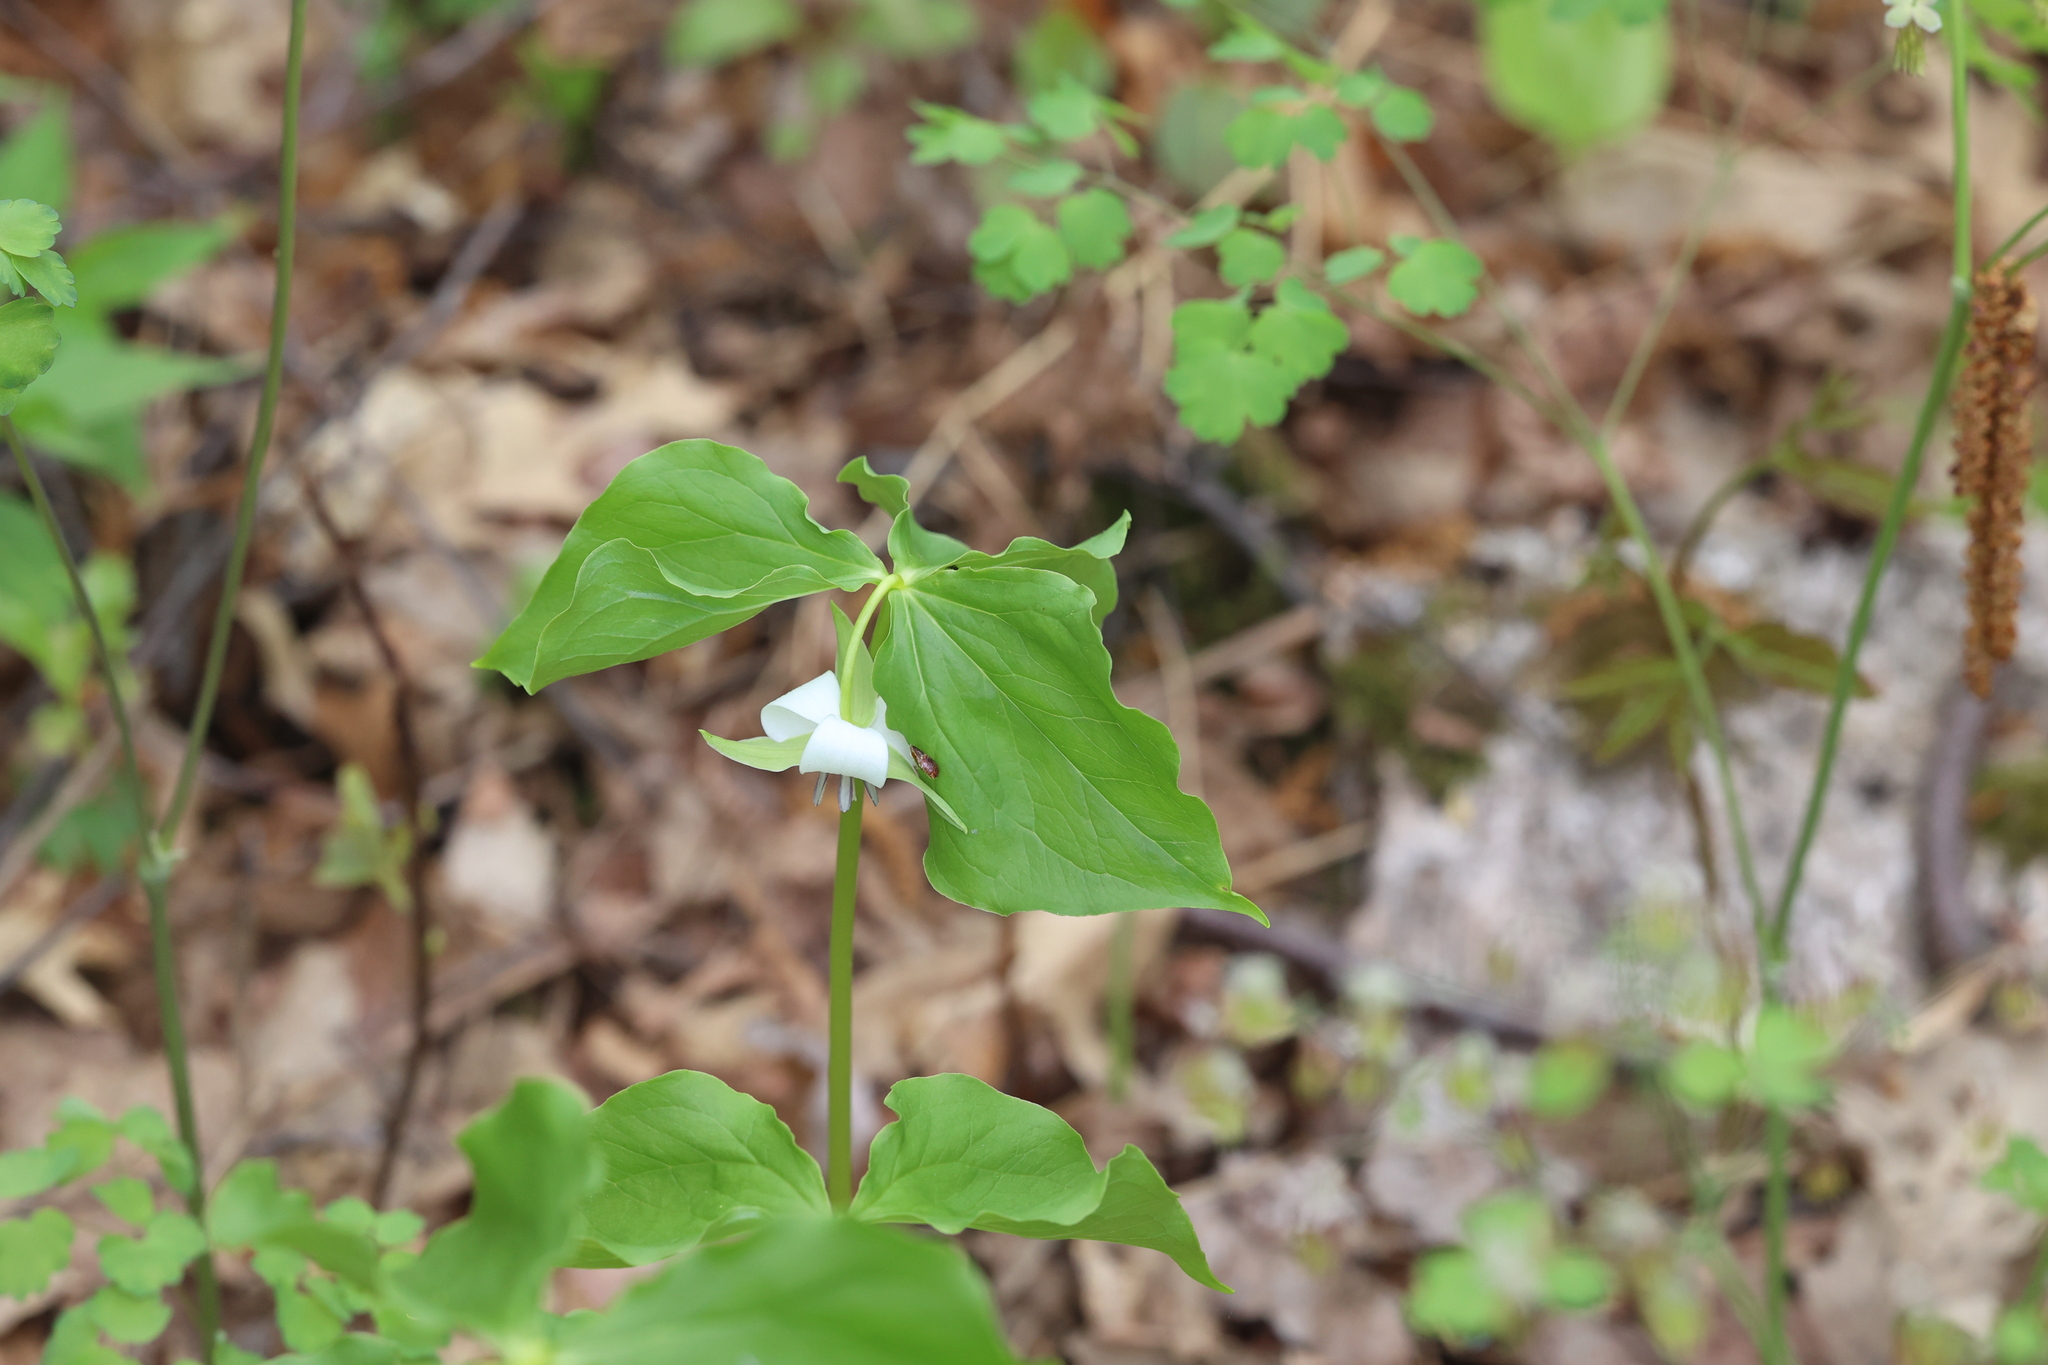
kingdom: Plantae
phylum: Tracheophyta
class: Liliopsida
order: Liliales
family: Melanthiaceae
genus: Trillium
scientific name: Trillium cernuum
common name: Nodding trillium
